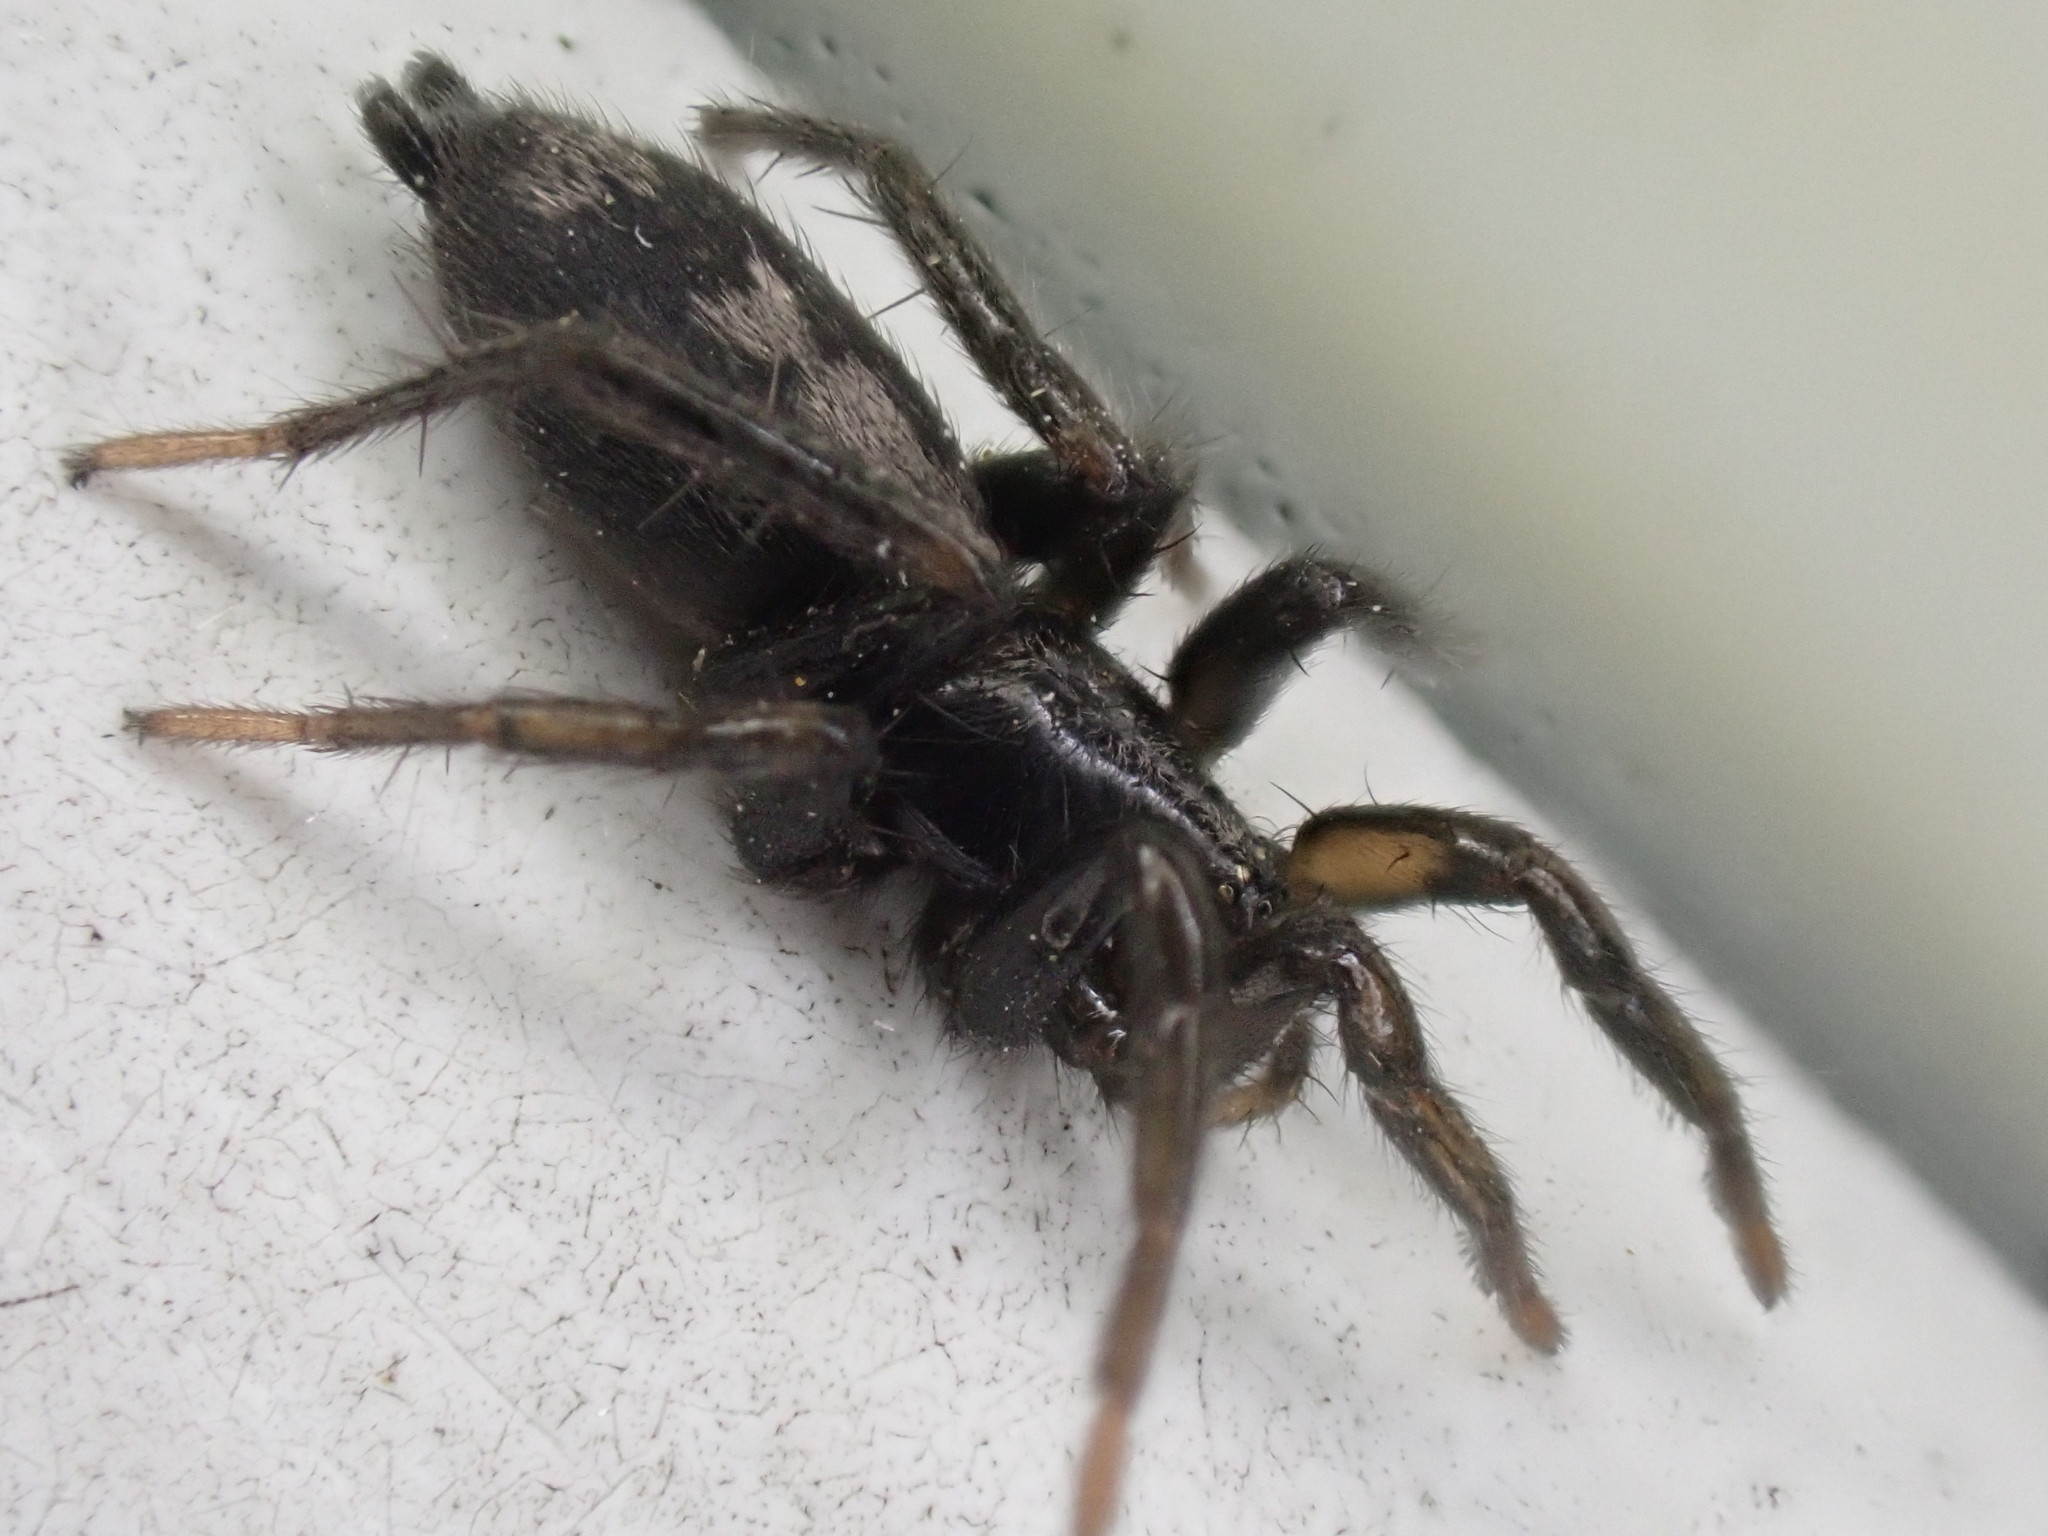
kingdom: Animalia
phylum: Arthropoda
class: Arachnida
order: Araneae
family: Gnaphosidae
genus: Herpyllus
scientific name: Herpyllus ecclesiasticus
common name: Eastern parson spider
